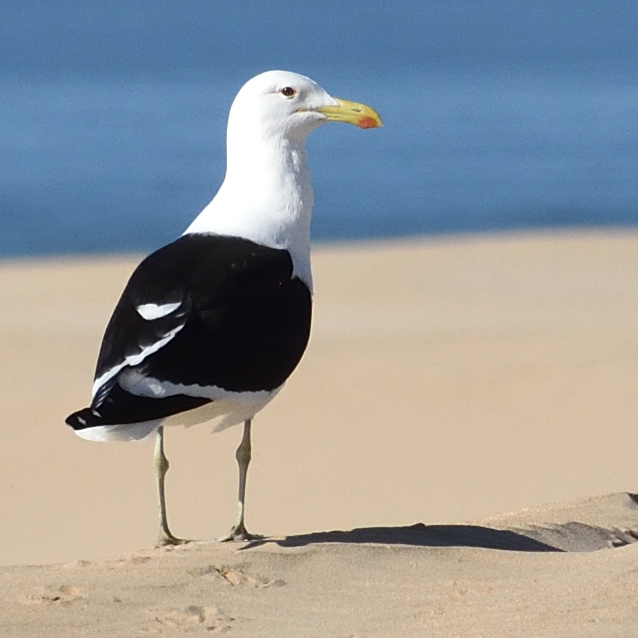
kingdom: Animalia
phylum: Chordata
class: Aves
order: Charadriiformes
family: Laridae
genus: Larus
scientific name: Larus dominicanus
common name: Kelp gull
